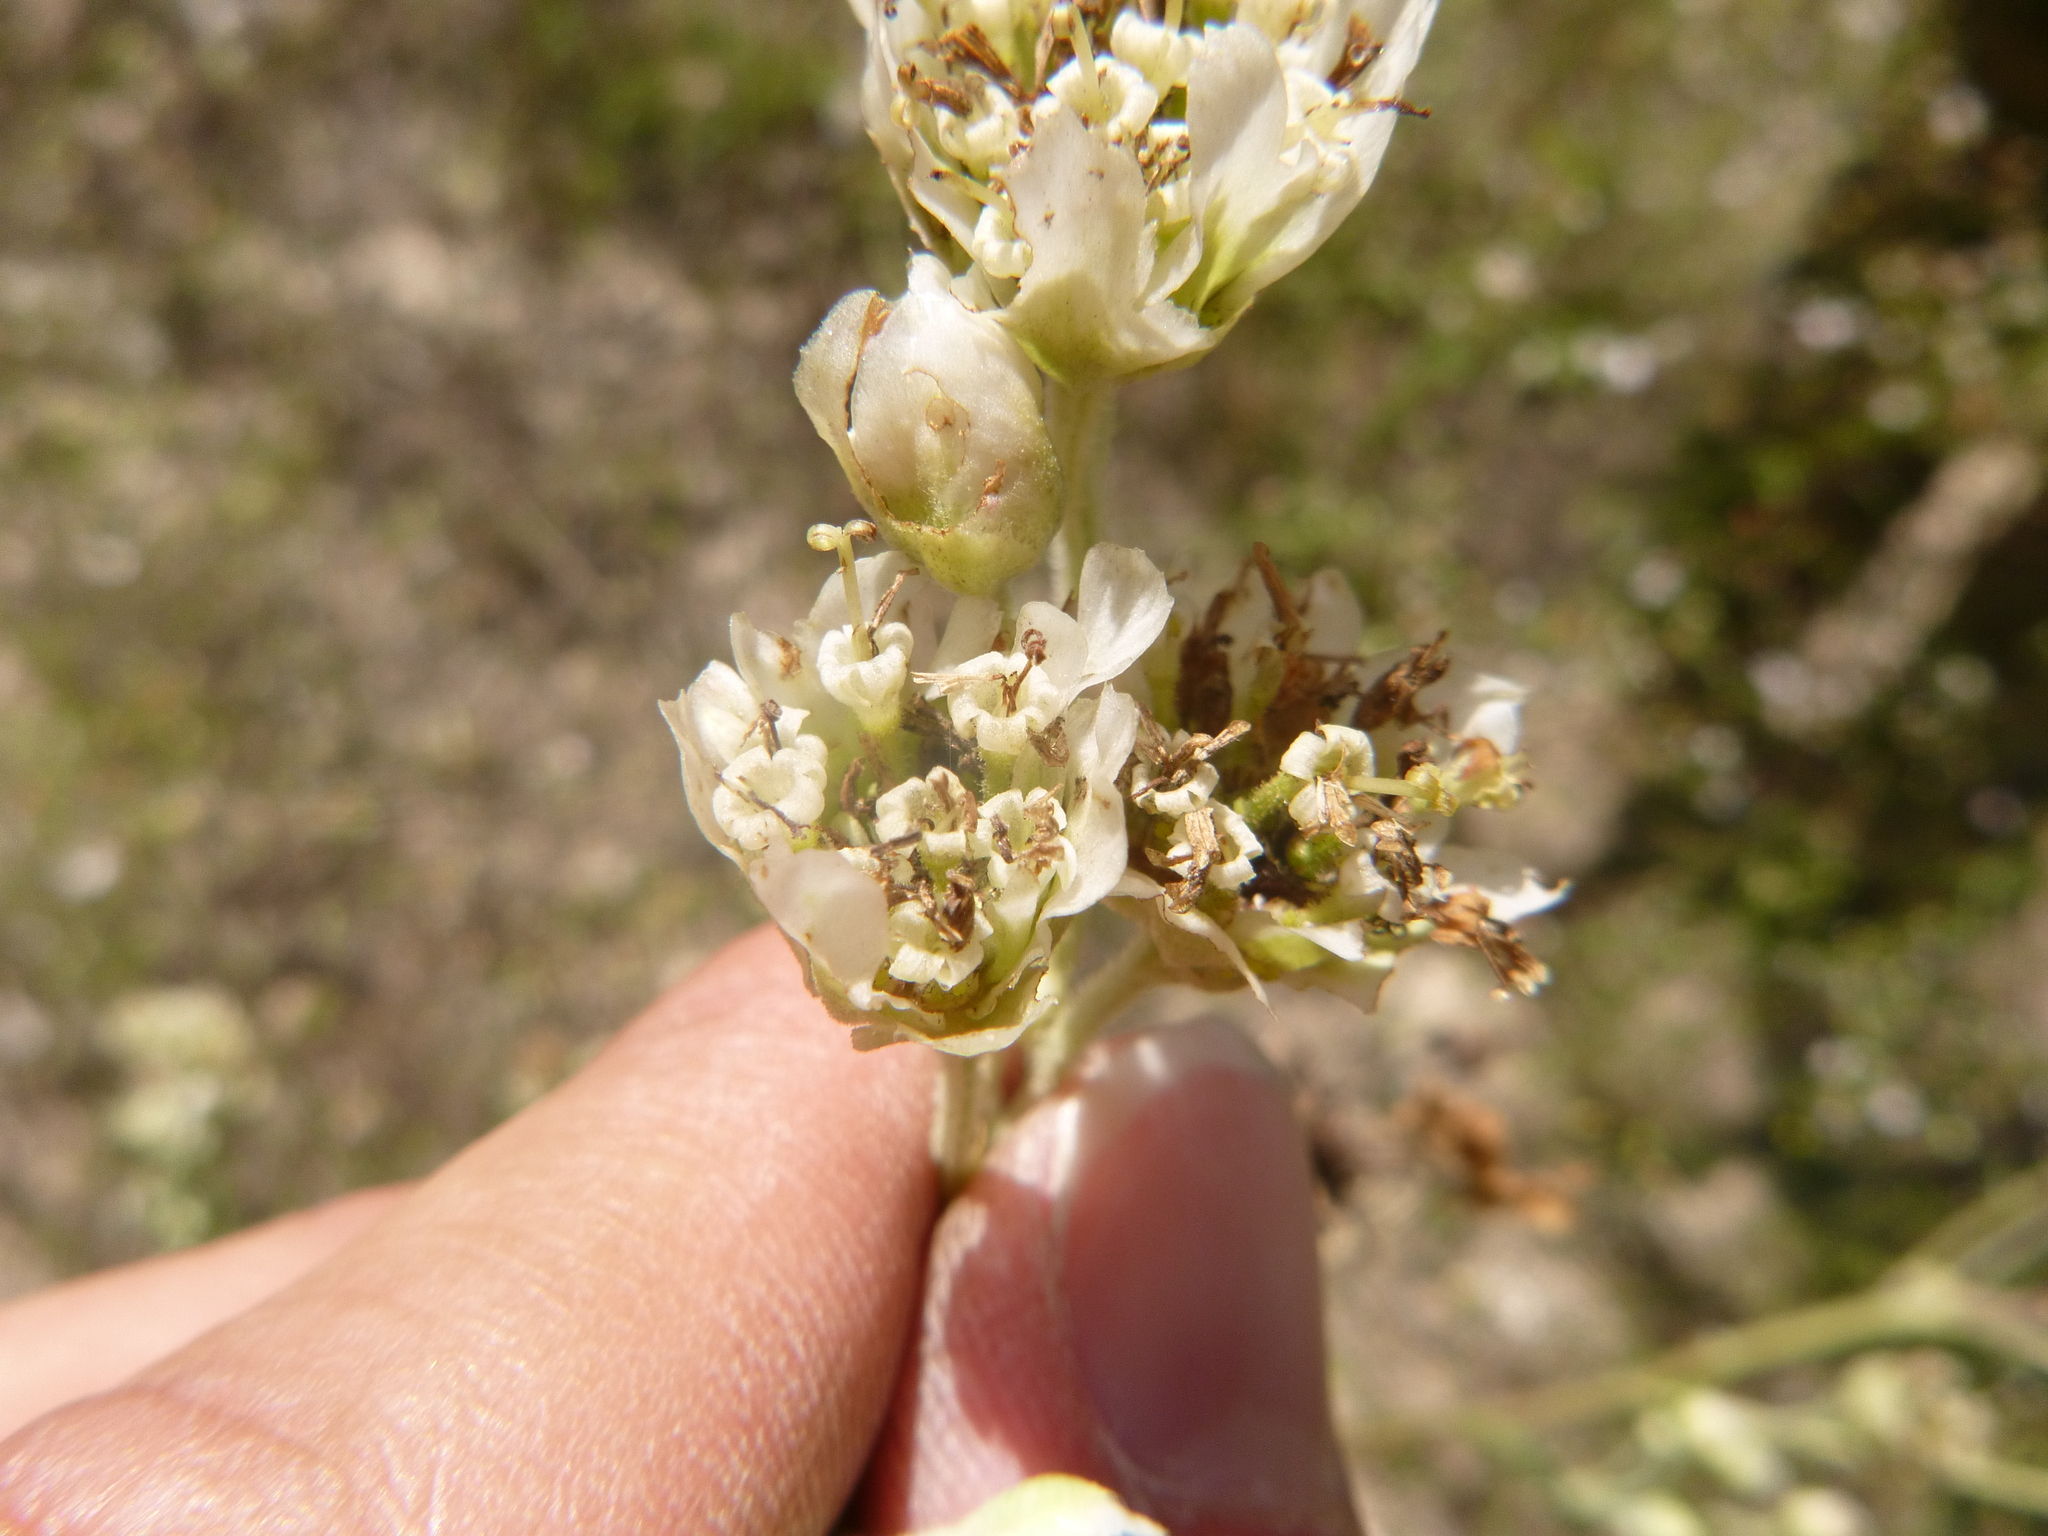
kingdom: Plantae
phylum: Tracheophyta
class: Magnoliopsida
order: Asterales
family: Asteraceae
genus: Hymenopappus
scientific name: Hymenopappus scabiosaeus
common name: Carolina woollywhite
